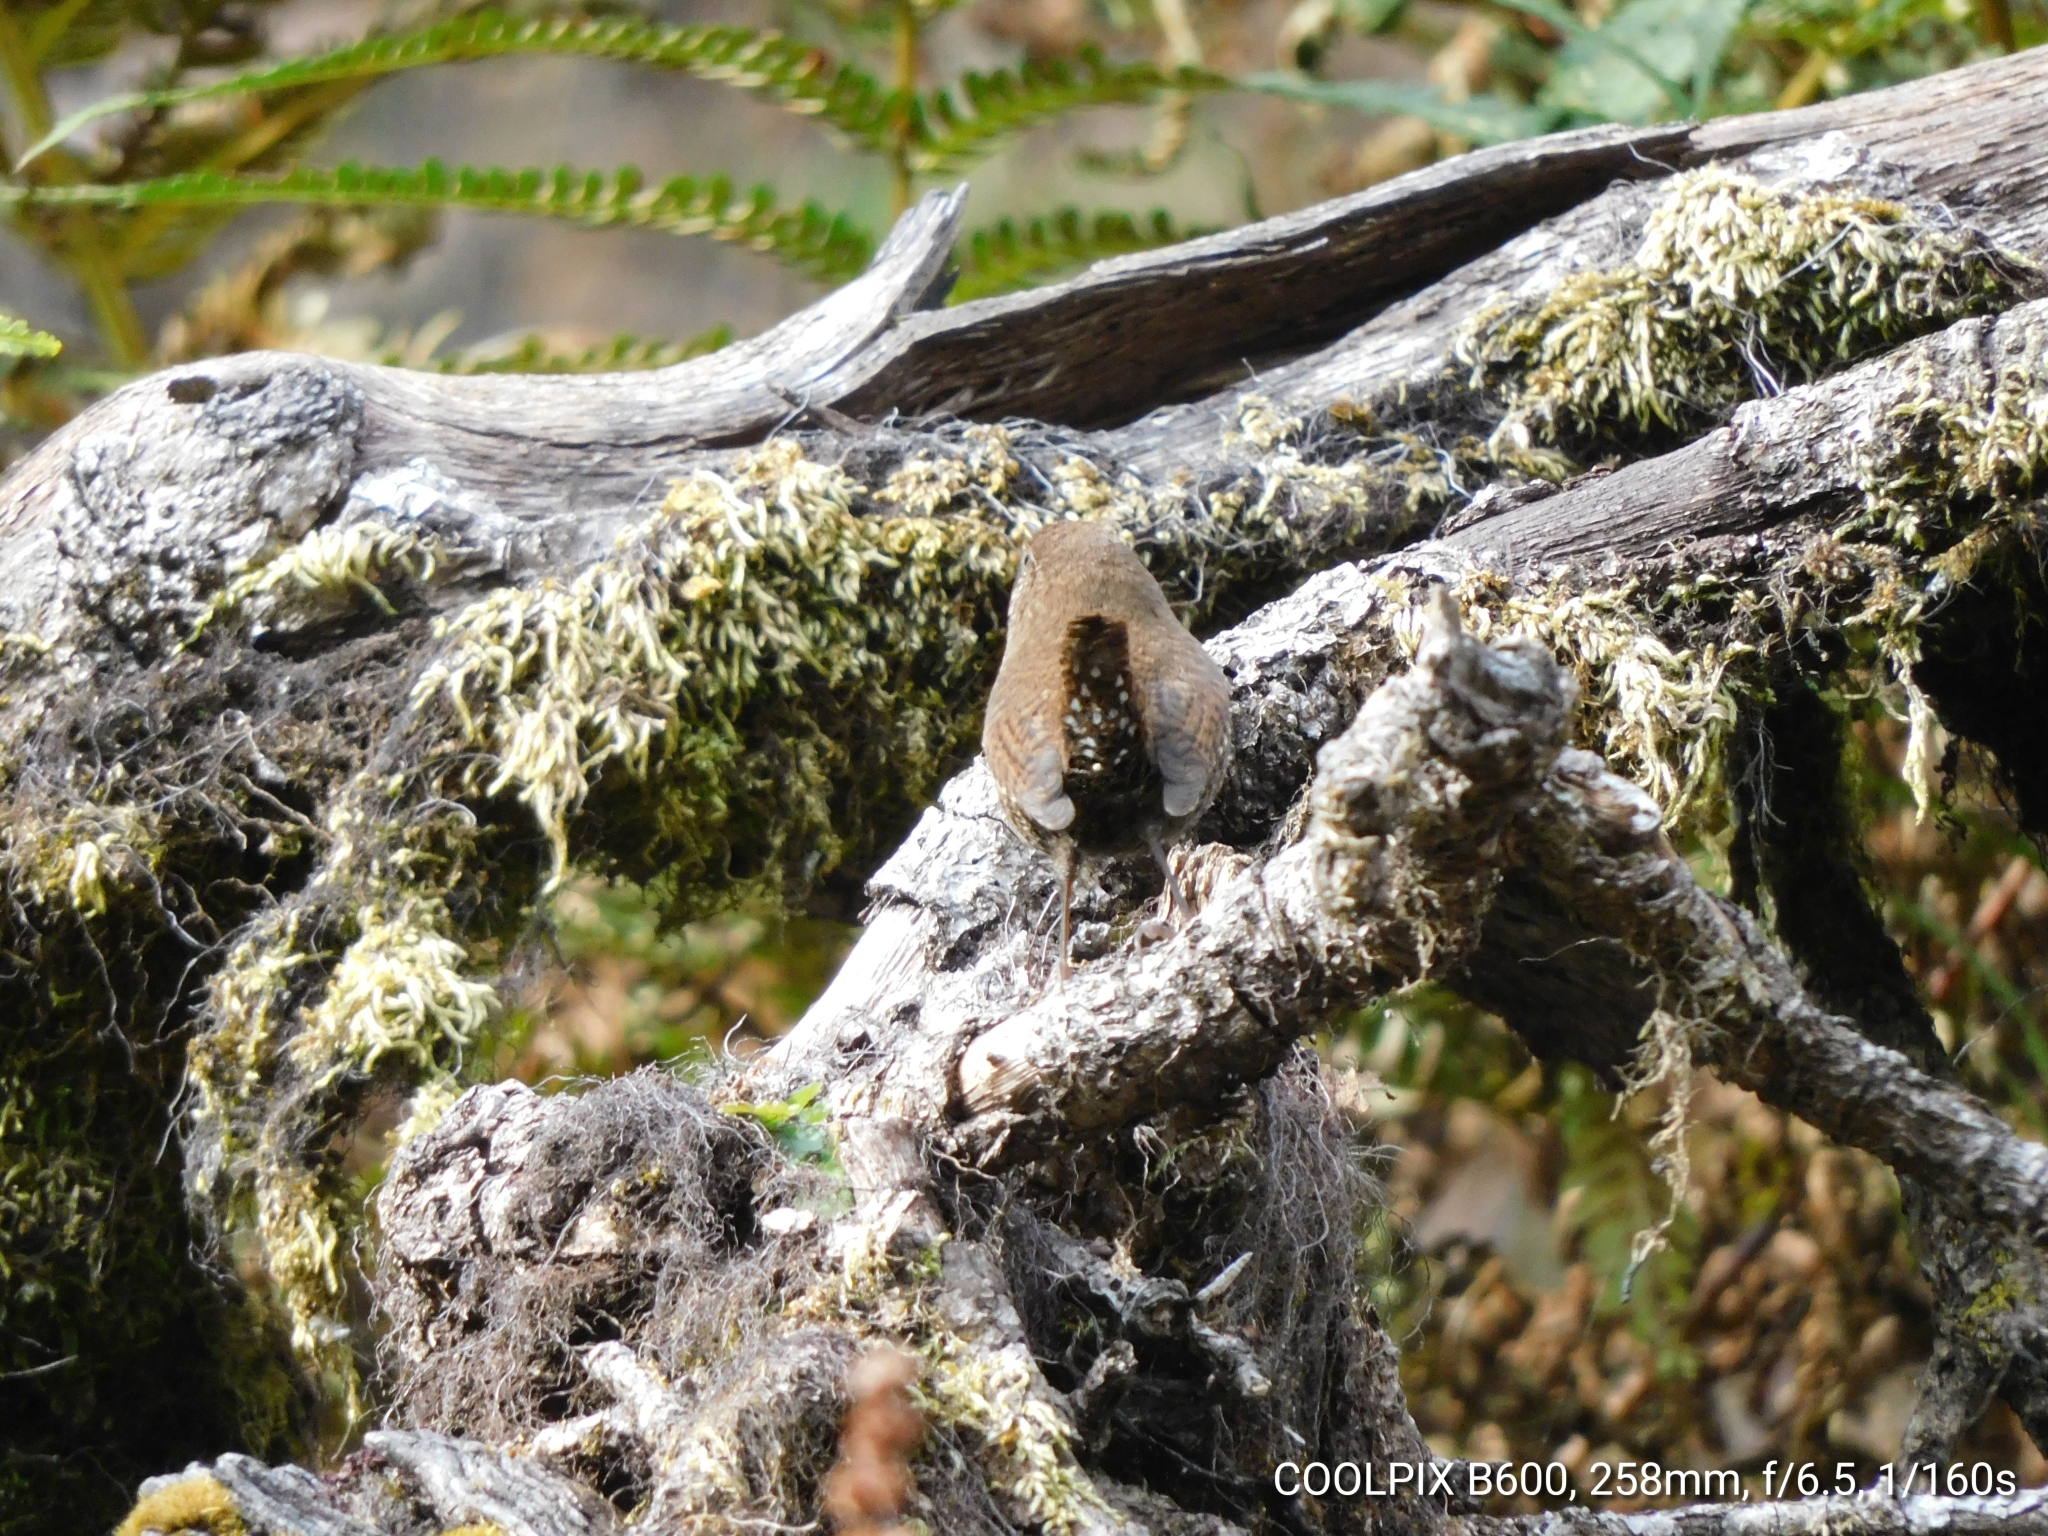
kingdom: Animalia
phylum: Chordata
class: Aves
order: Passeriformes
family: Troglodytidae
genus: Troglodytes
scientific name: Troglodytes troglodytes
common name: Eurasian wren
